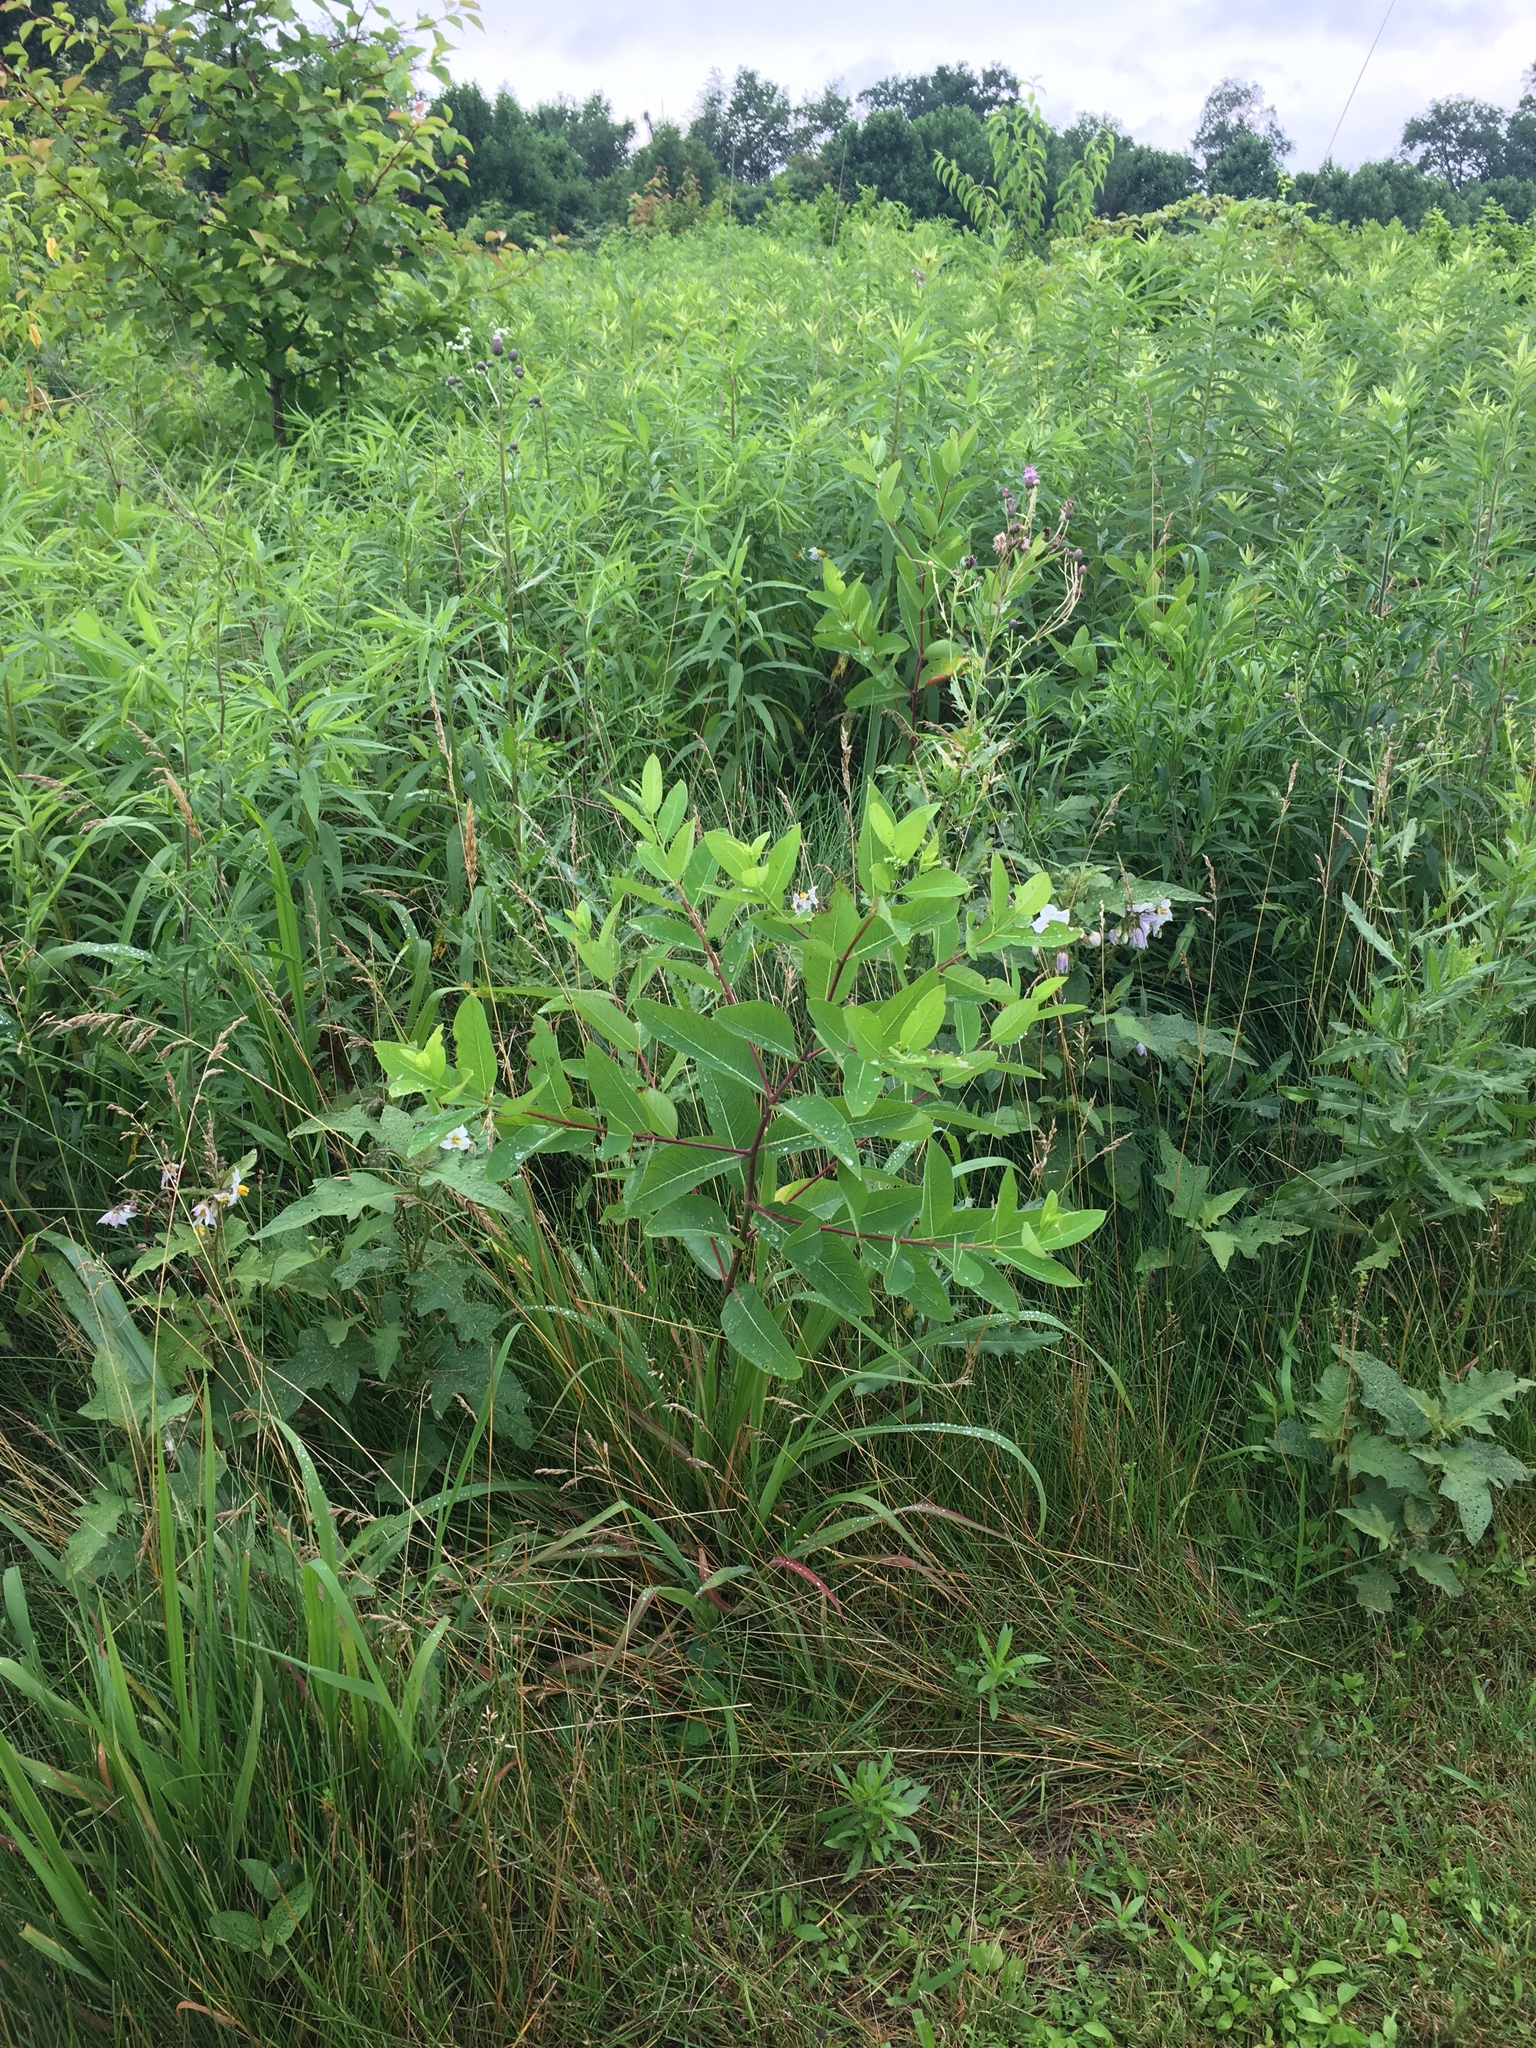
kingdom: Plantae
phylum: Tracheophyta
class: Magnoliopsida
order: Gentianales
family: Apocynaceae
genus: Apocynum
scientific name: Apocynum cannabinum
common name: Hemp dogbane
